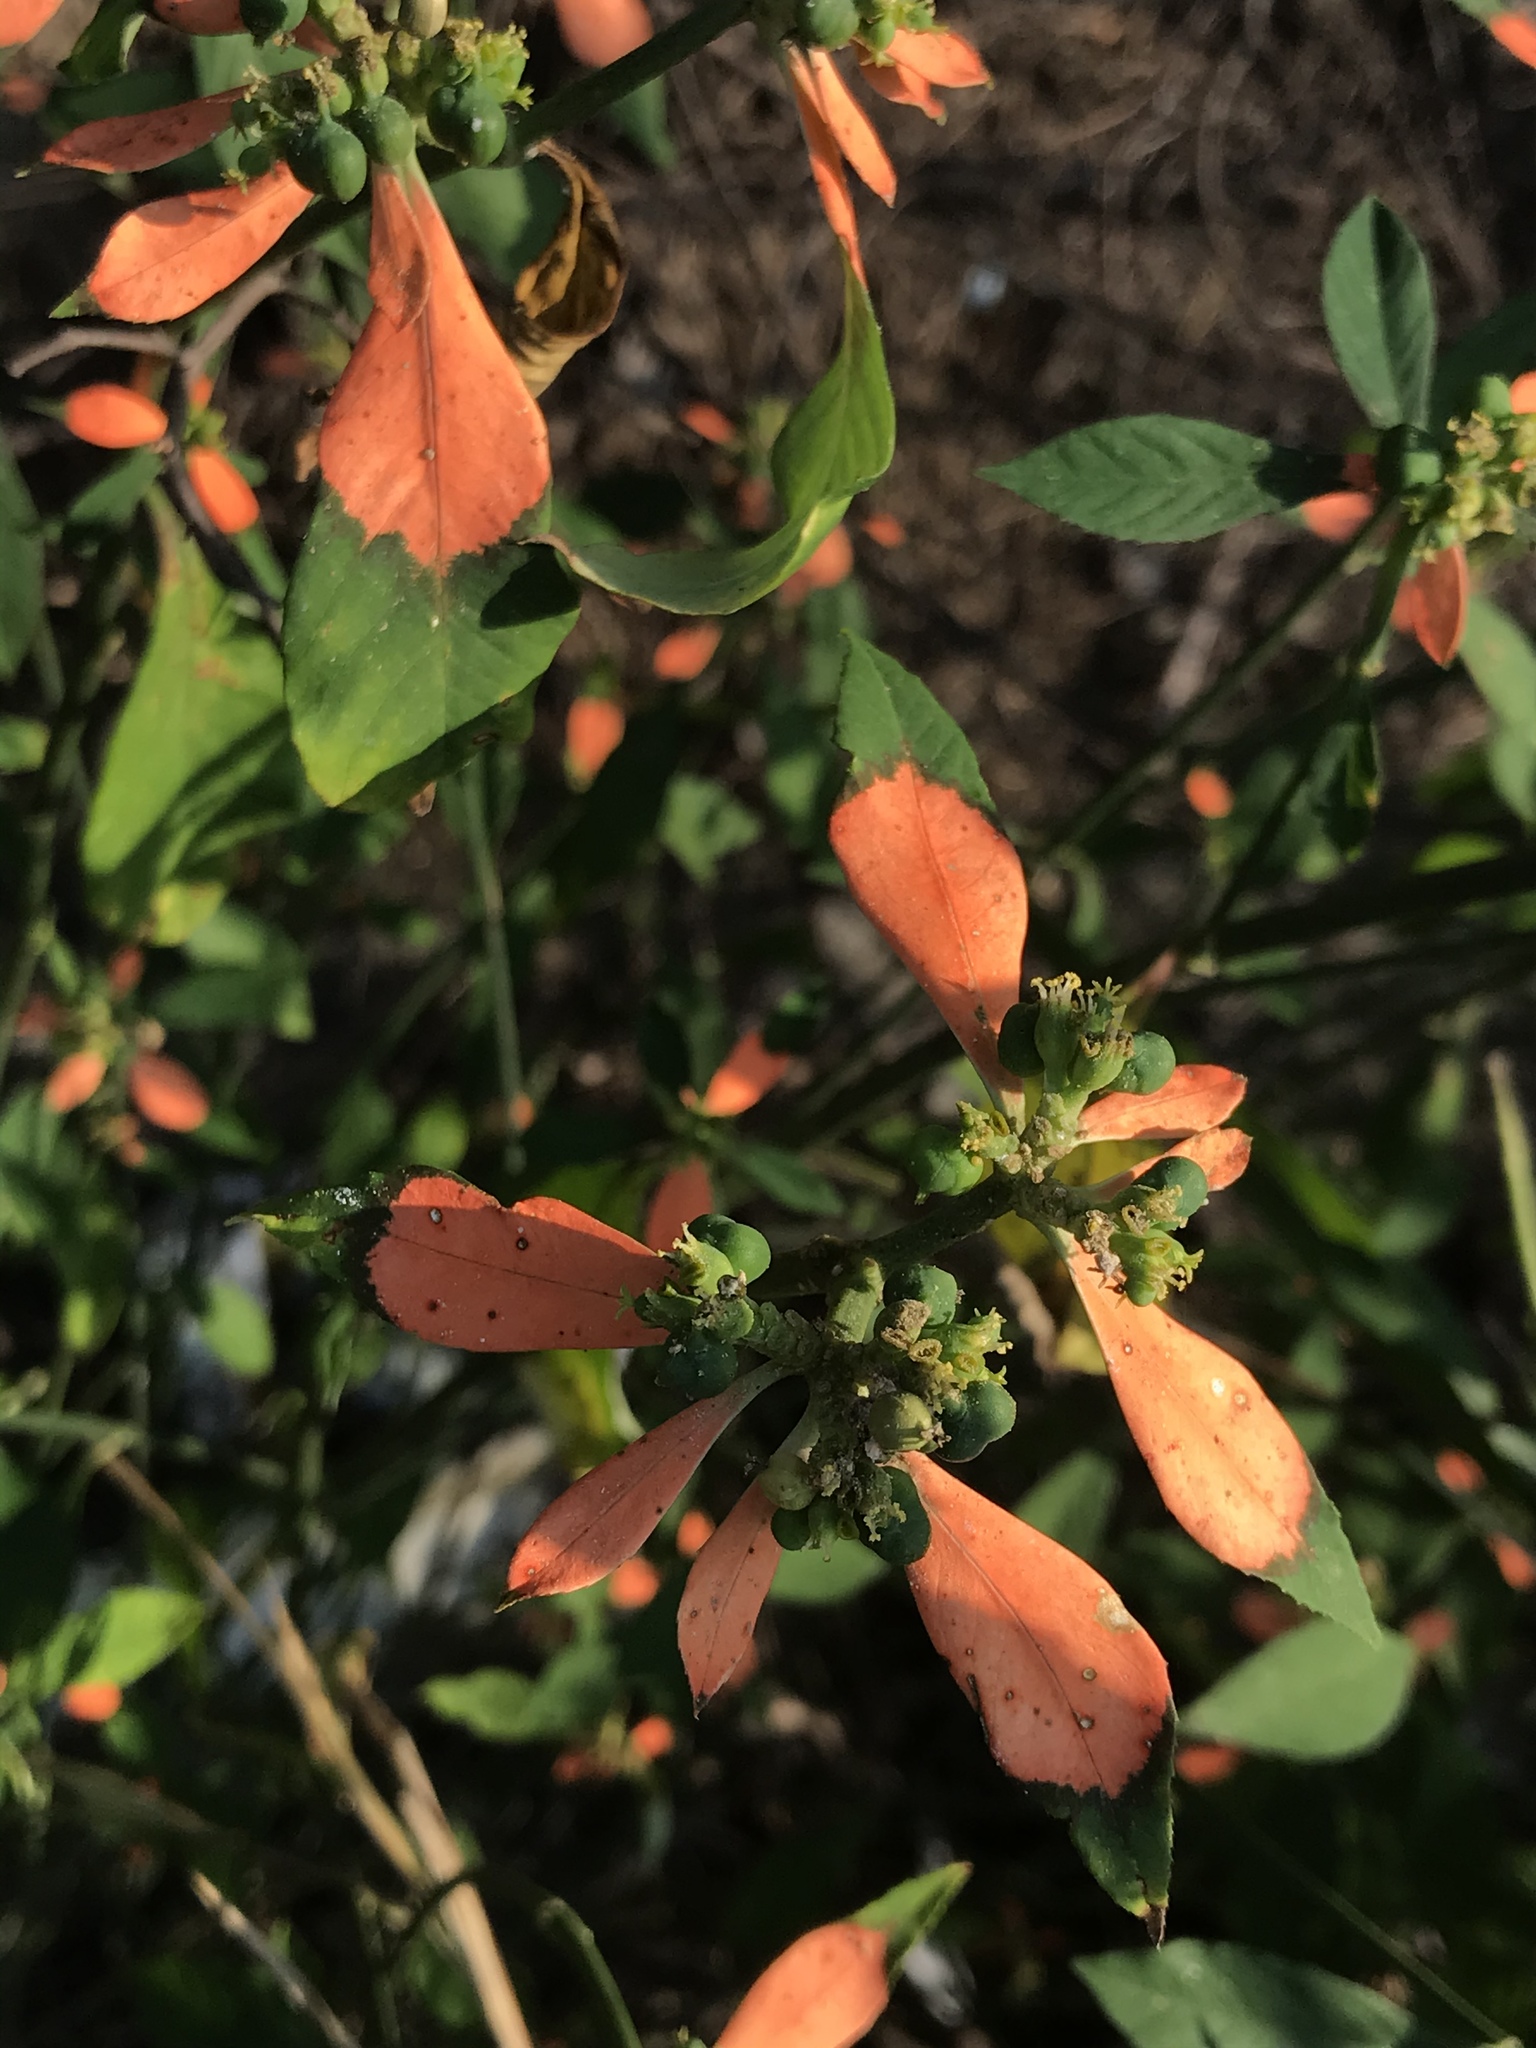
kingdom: Plantae
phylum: Tracheophyta
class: Magnoliopsida
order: Malpighiales
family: Euphorbiaceae
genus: Euphorbia
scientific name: Euphorbia heterophylla
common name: Mexican fireplant
